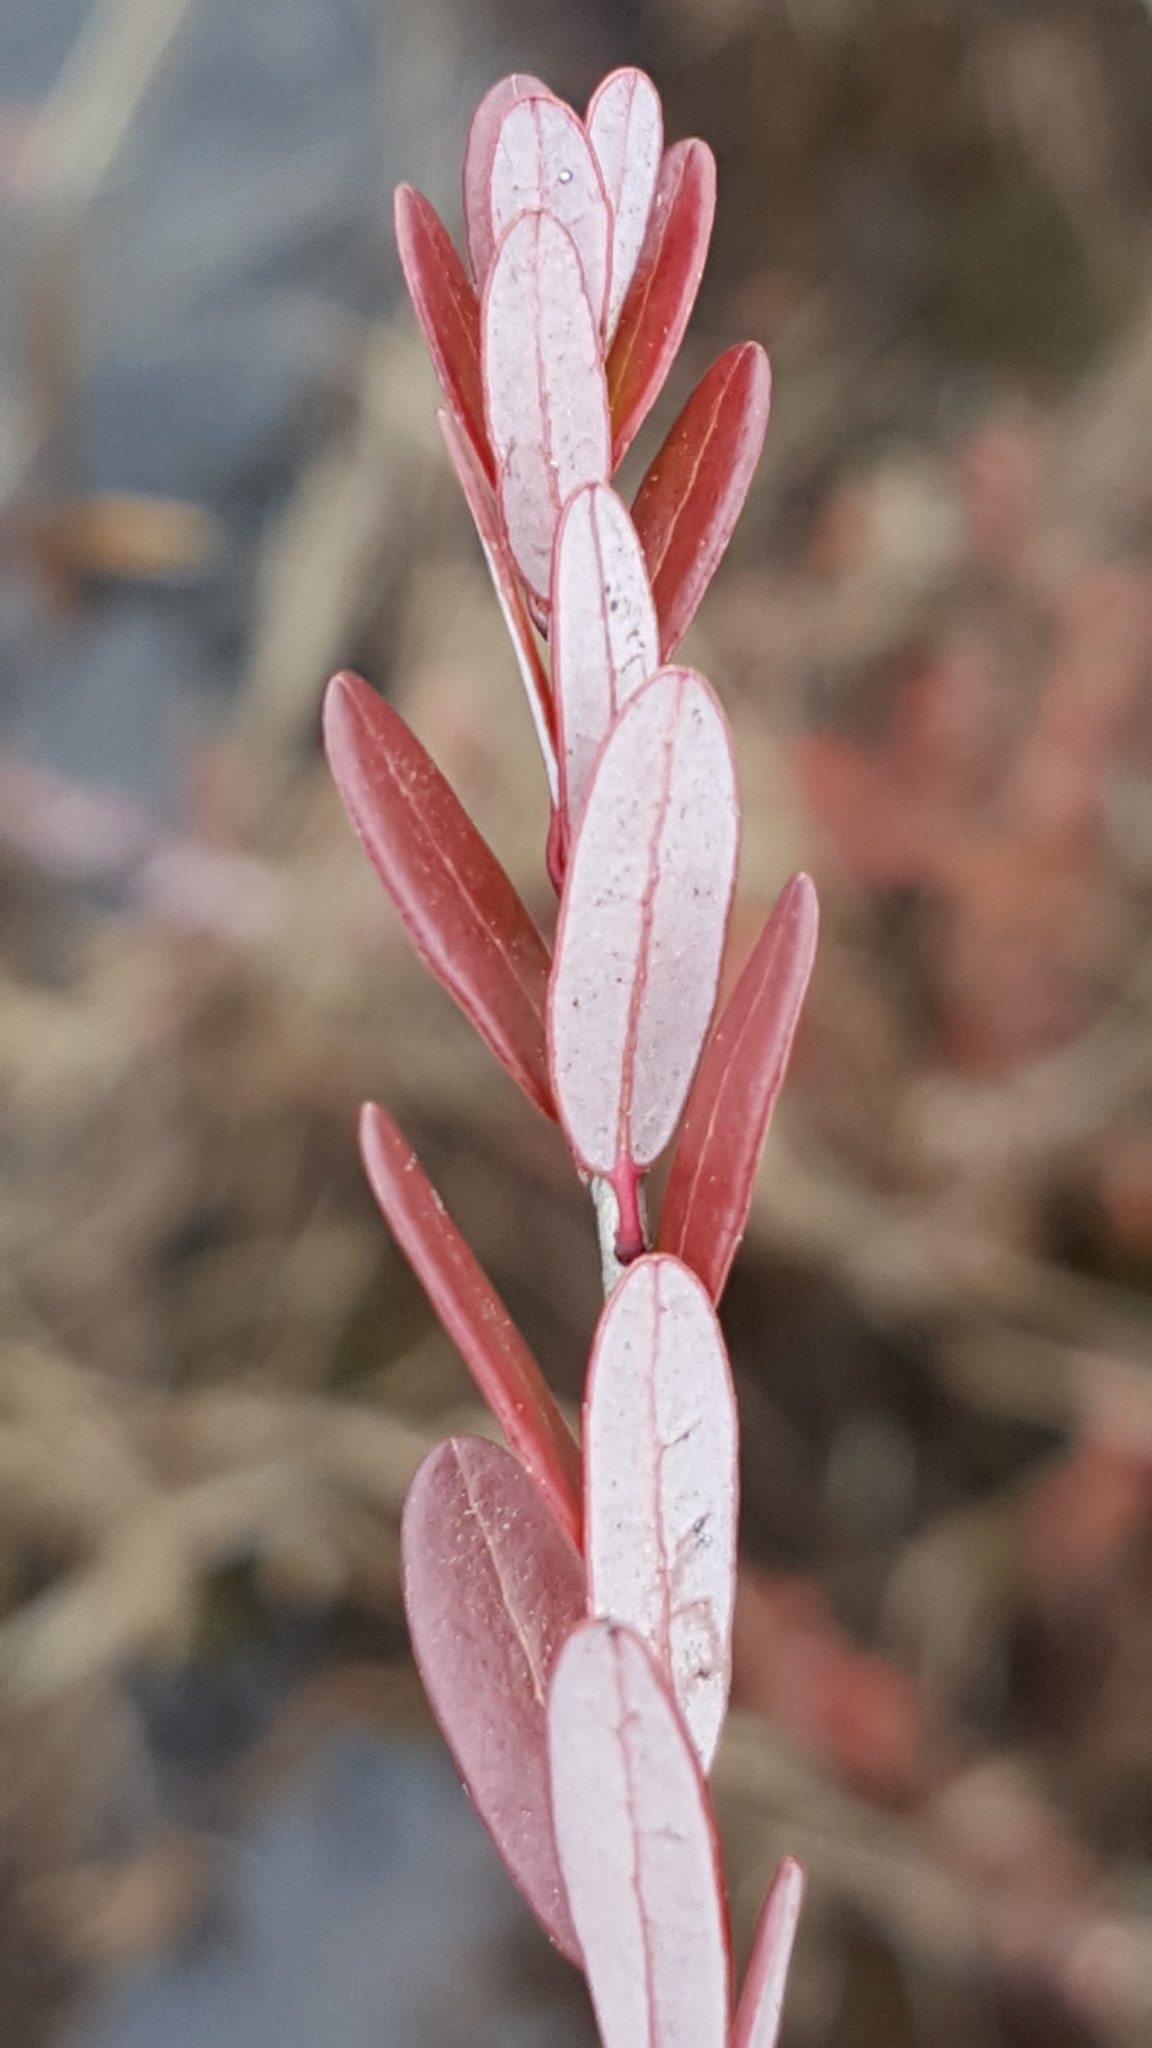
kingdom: Plantae
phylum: Tracheophyta
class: Magnoliopsida
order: Ericales
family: Ericaceae
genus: Vaccinium
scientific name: Vaccinium macrocarpon
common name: American cranberry
